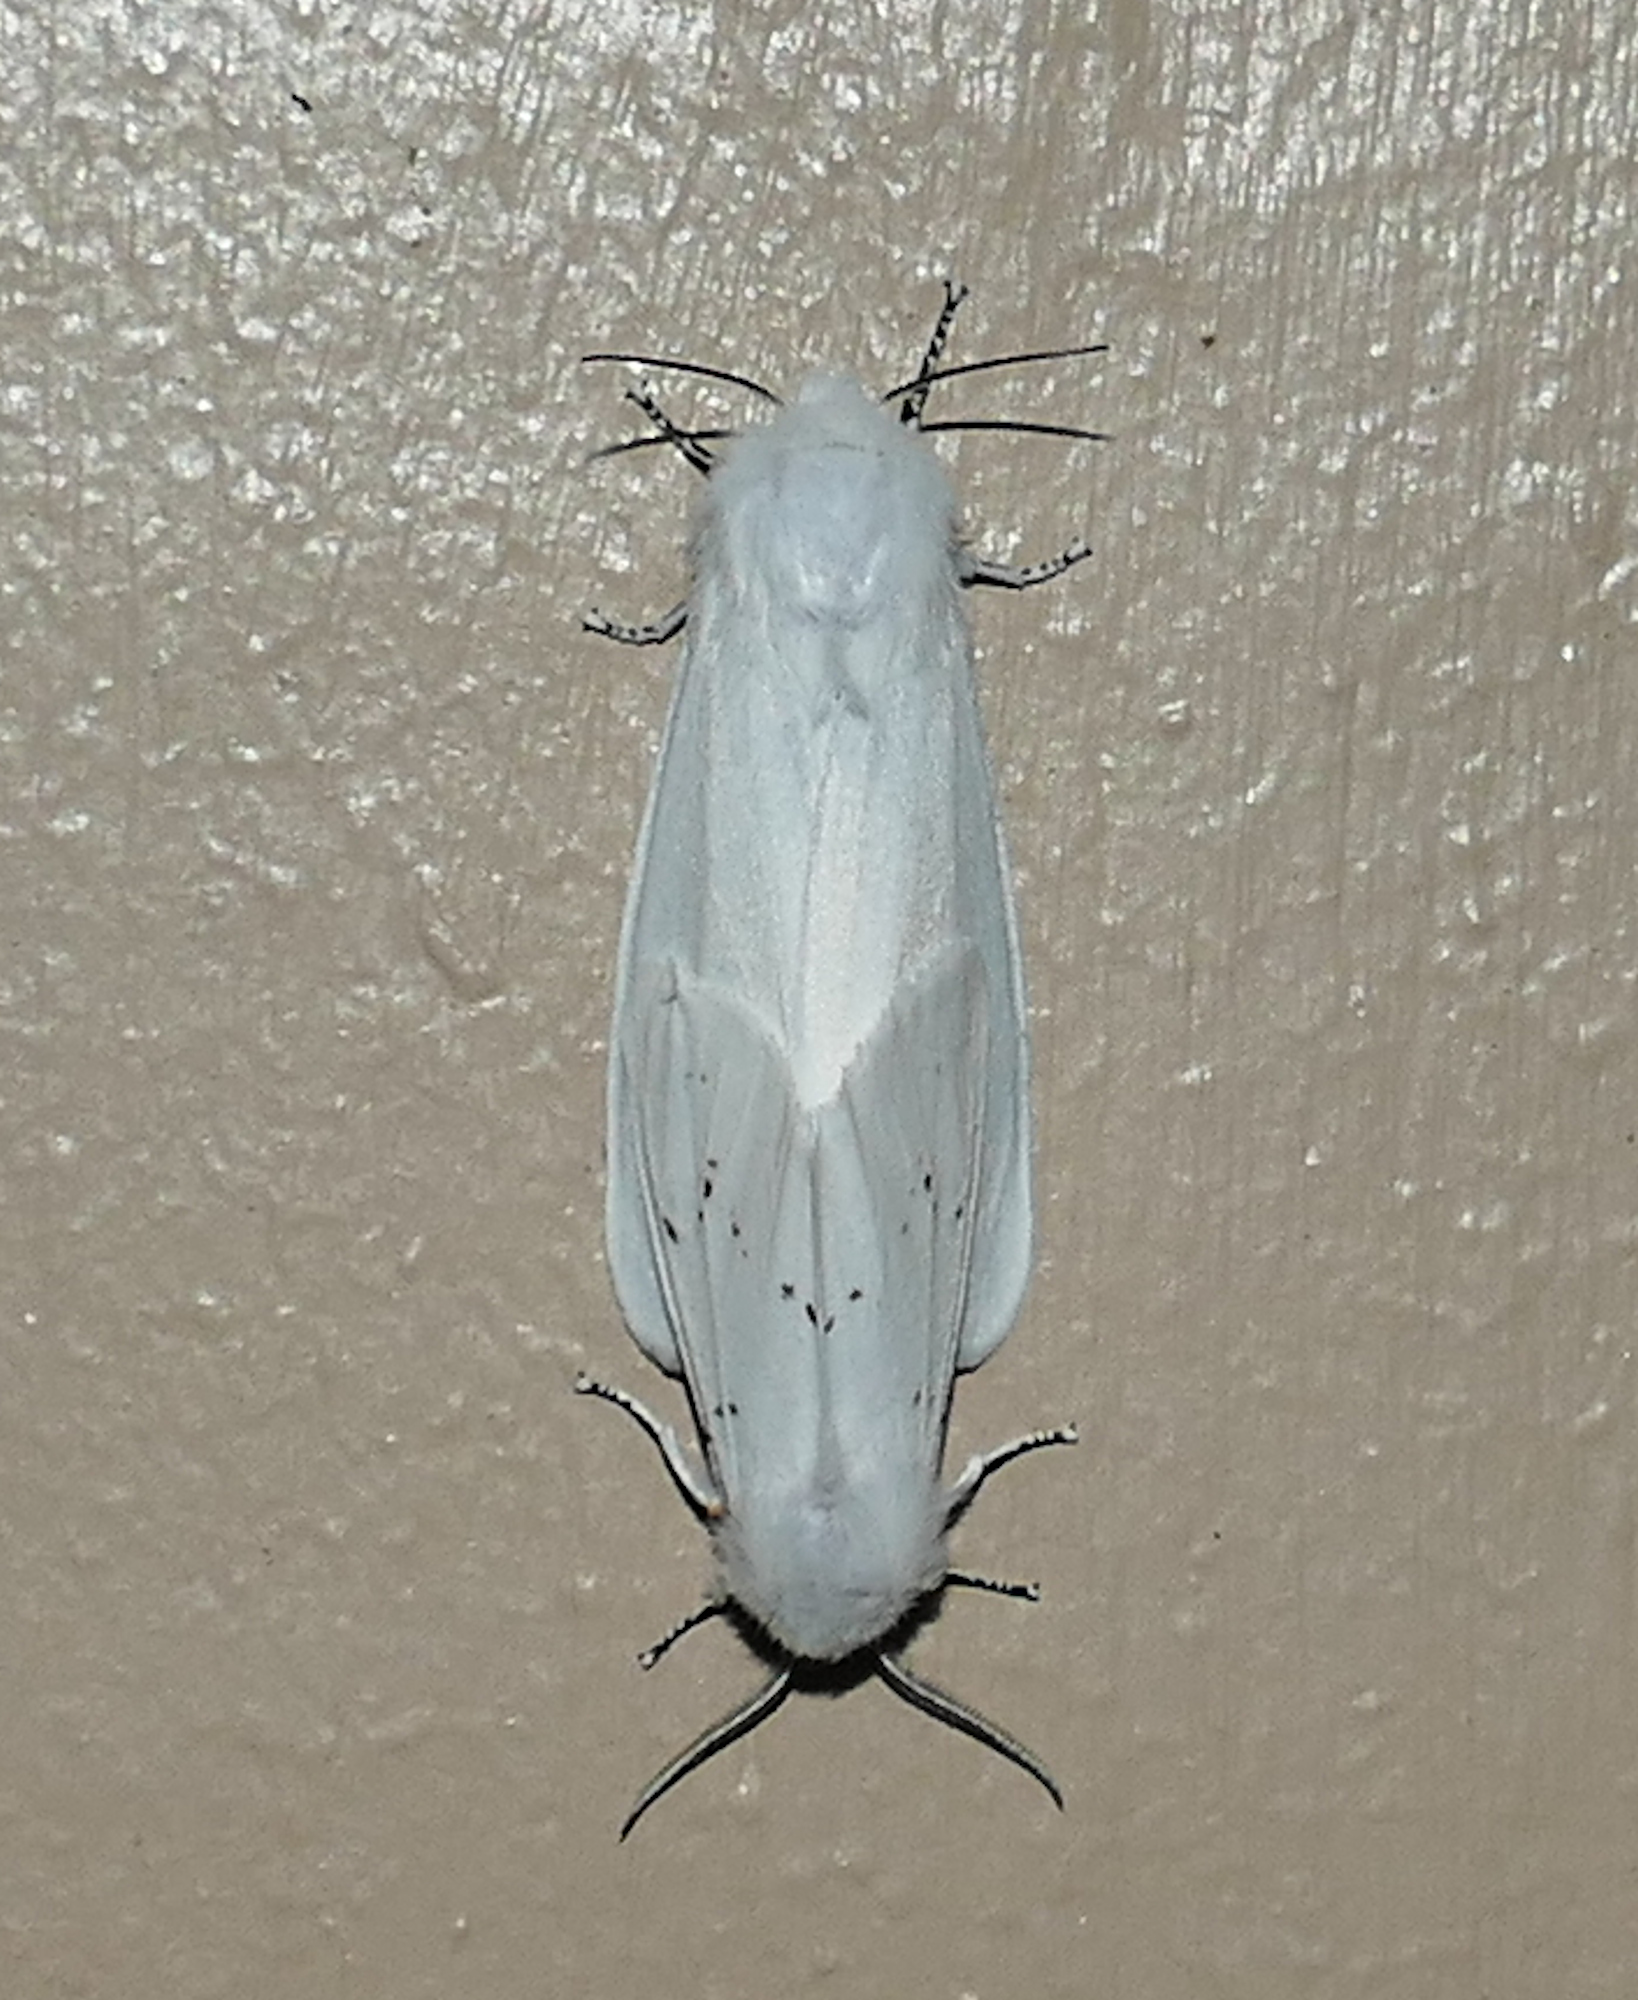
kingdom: Animalia
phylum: Arthropoda
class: Insecta
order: Lepidoptera
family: Erebidae
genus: Hyphantria
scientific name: Hyphantria cunea
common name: American white moth
